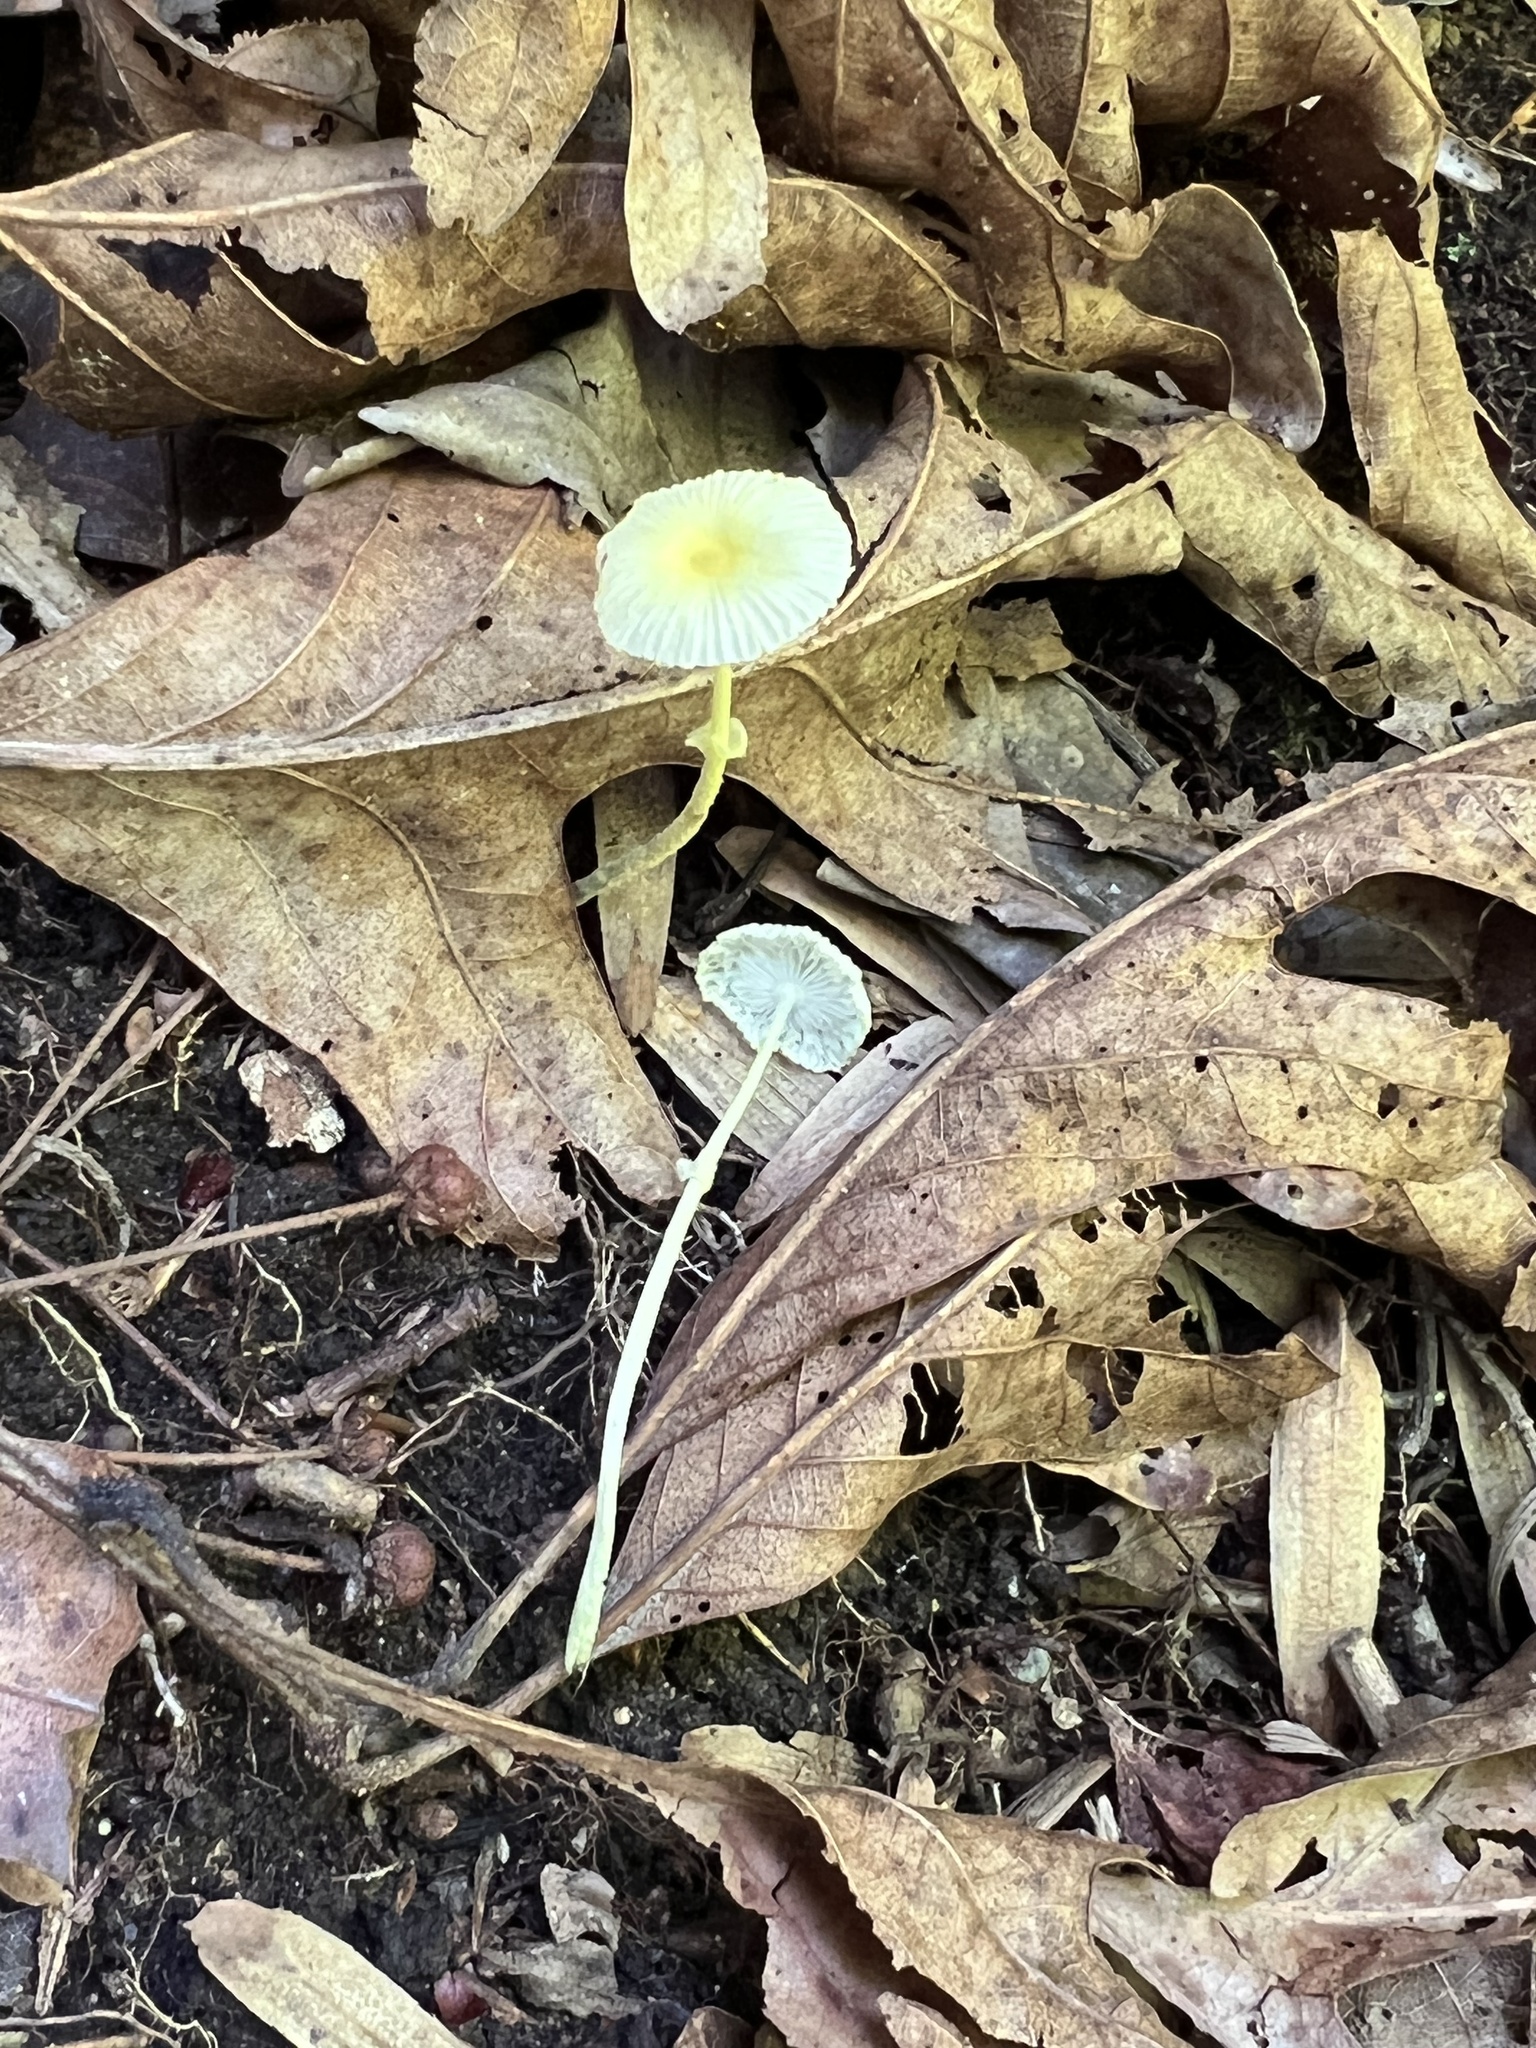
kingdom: Fungi
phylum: Basidiomycota
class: Agaricomycetes
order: Agaricales
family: Agaricaceae
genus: Leucocoprinus
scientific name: Leucocoprinus fragilissimus
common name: Fragile dapperling
